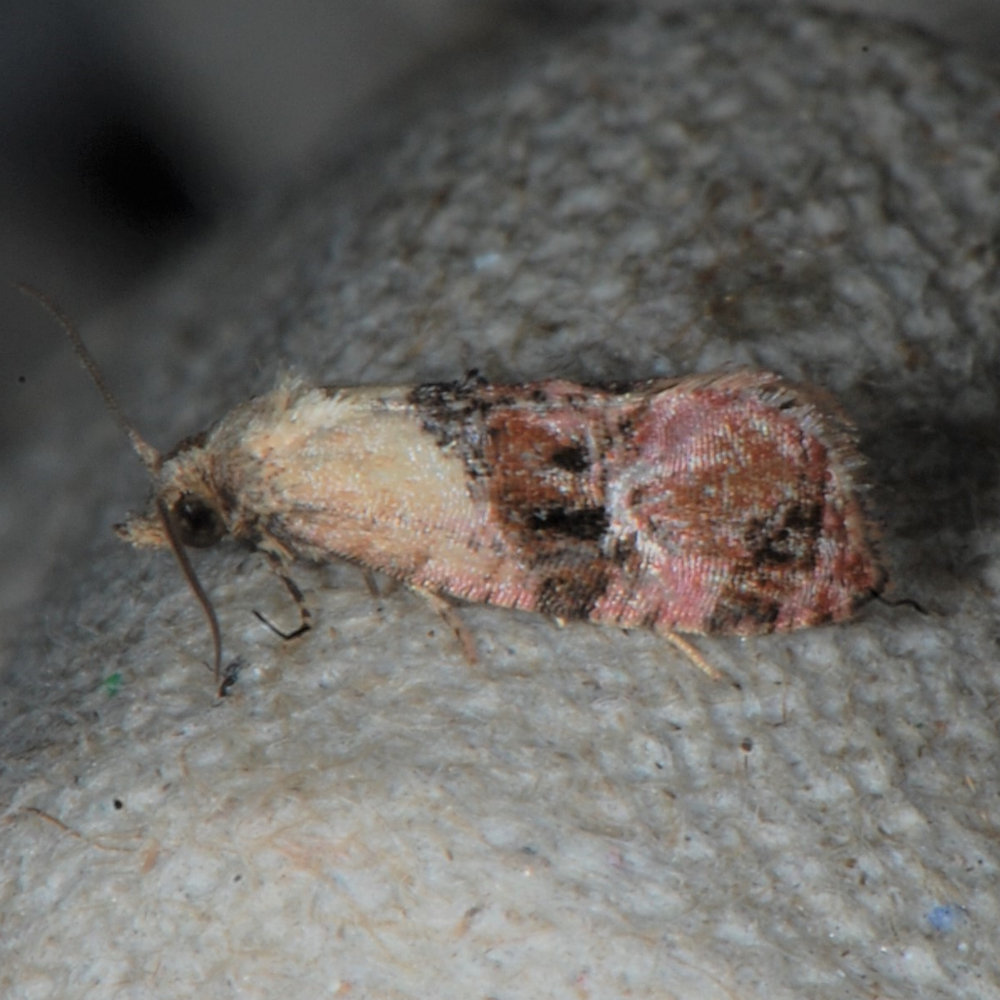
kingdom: Animalia
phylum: Arthropoda
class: Insecta
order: Lepidoptera
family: Tortricidae
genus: Cochylis
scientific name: Cochylis
